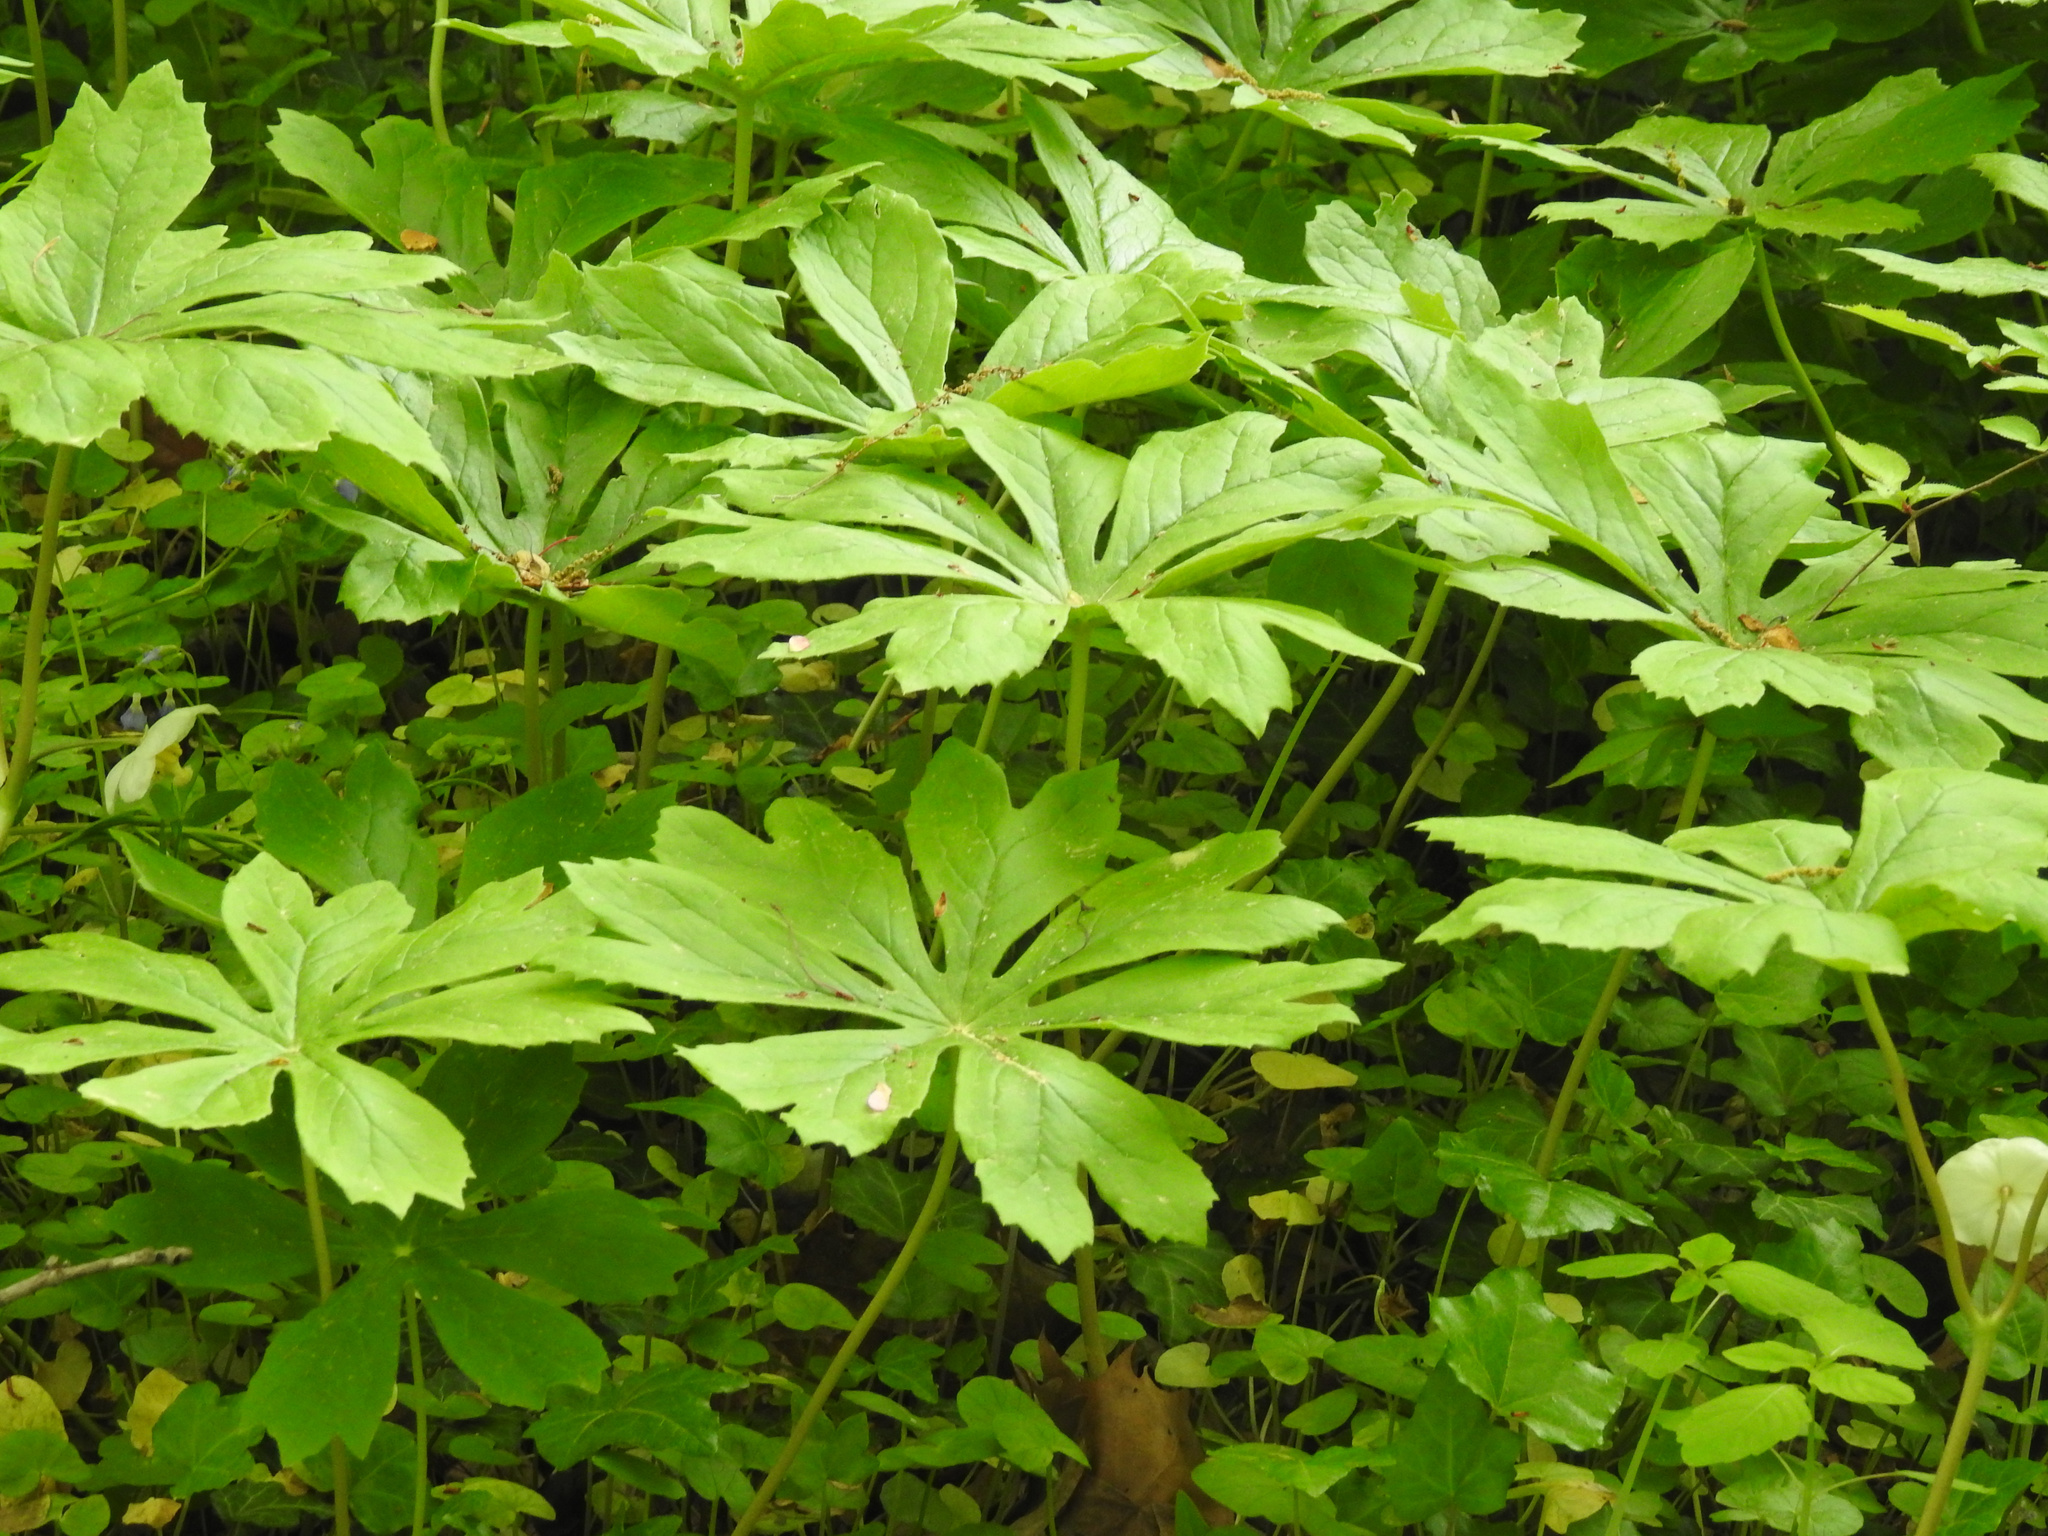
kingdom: Plantae
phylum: Tracheophyta
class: Magnoliopsida
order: Ranunculales
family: Berberidaceae
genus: Podophyllum
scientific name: Podophyllum peltatum
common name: Wild mandrake
